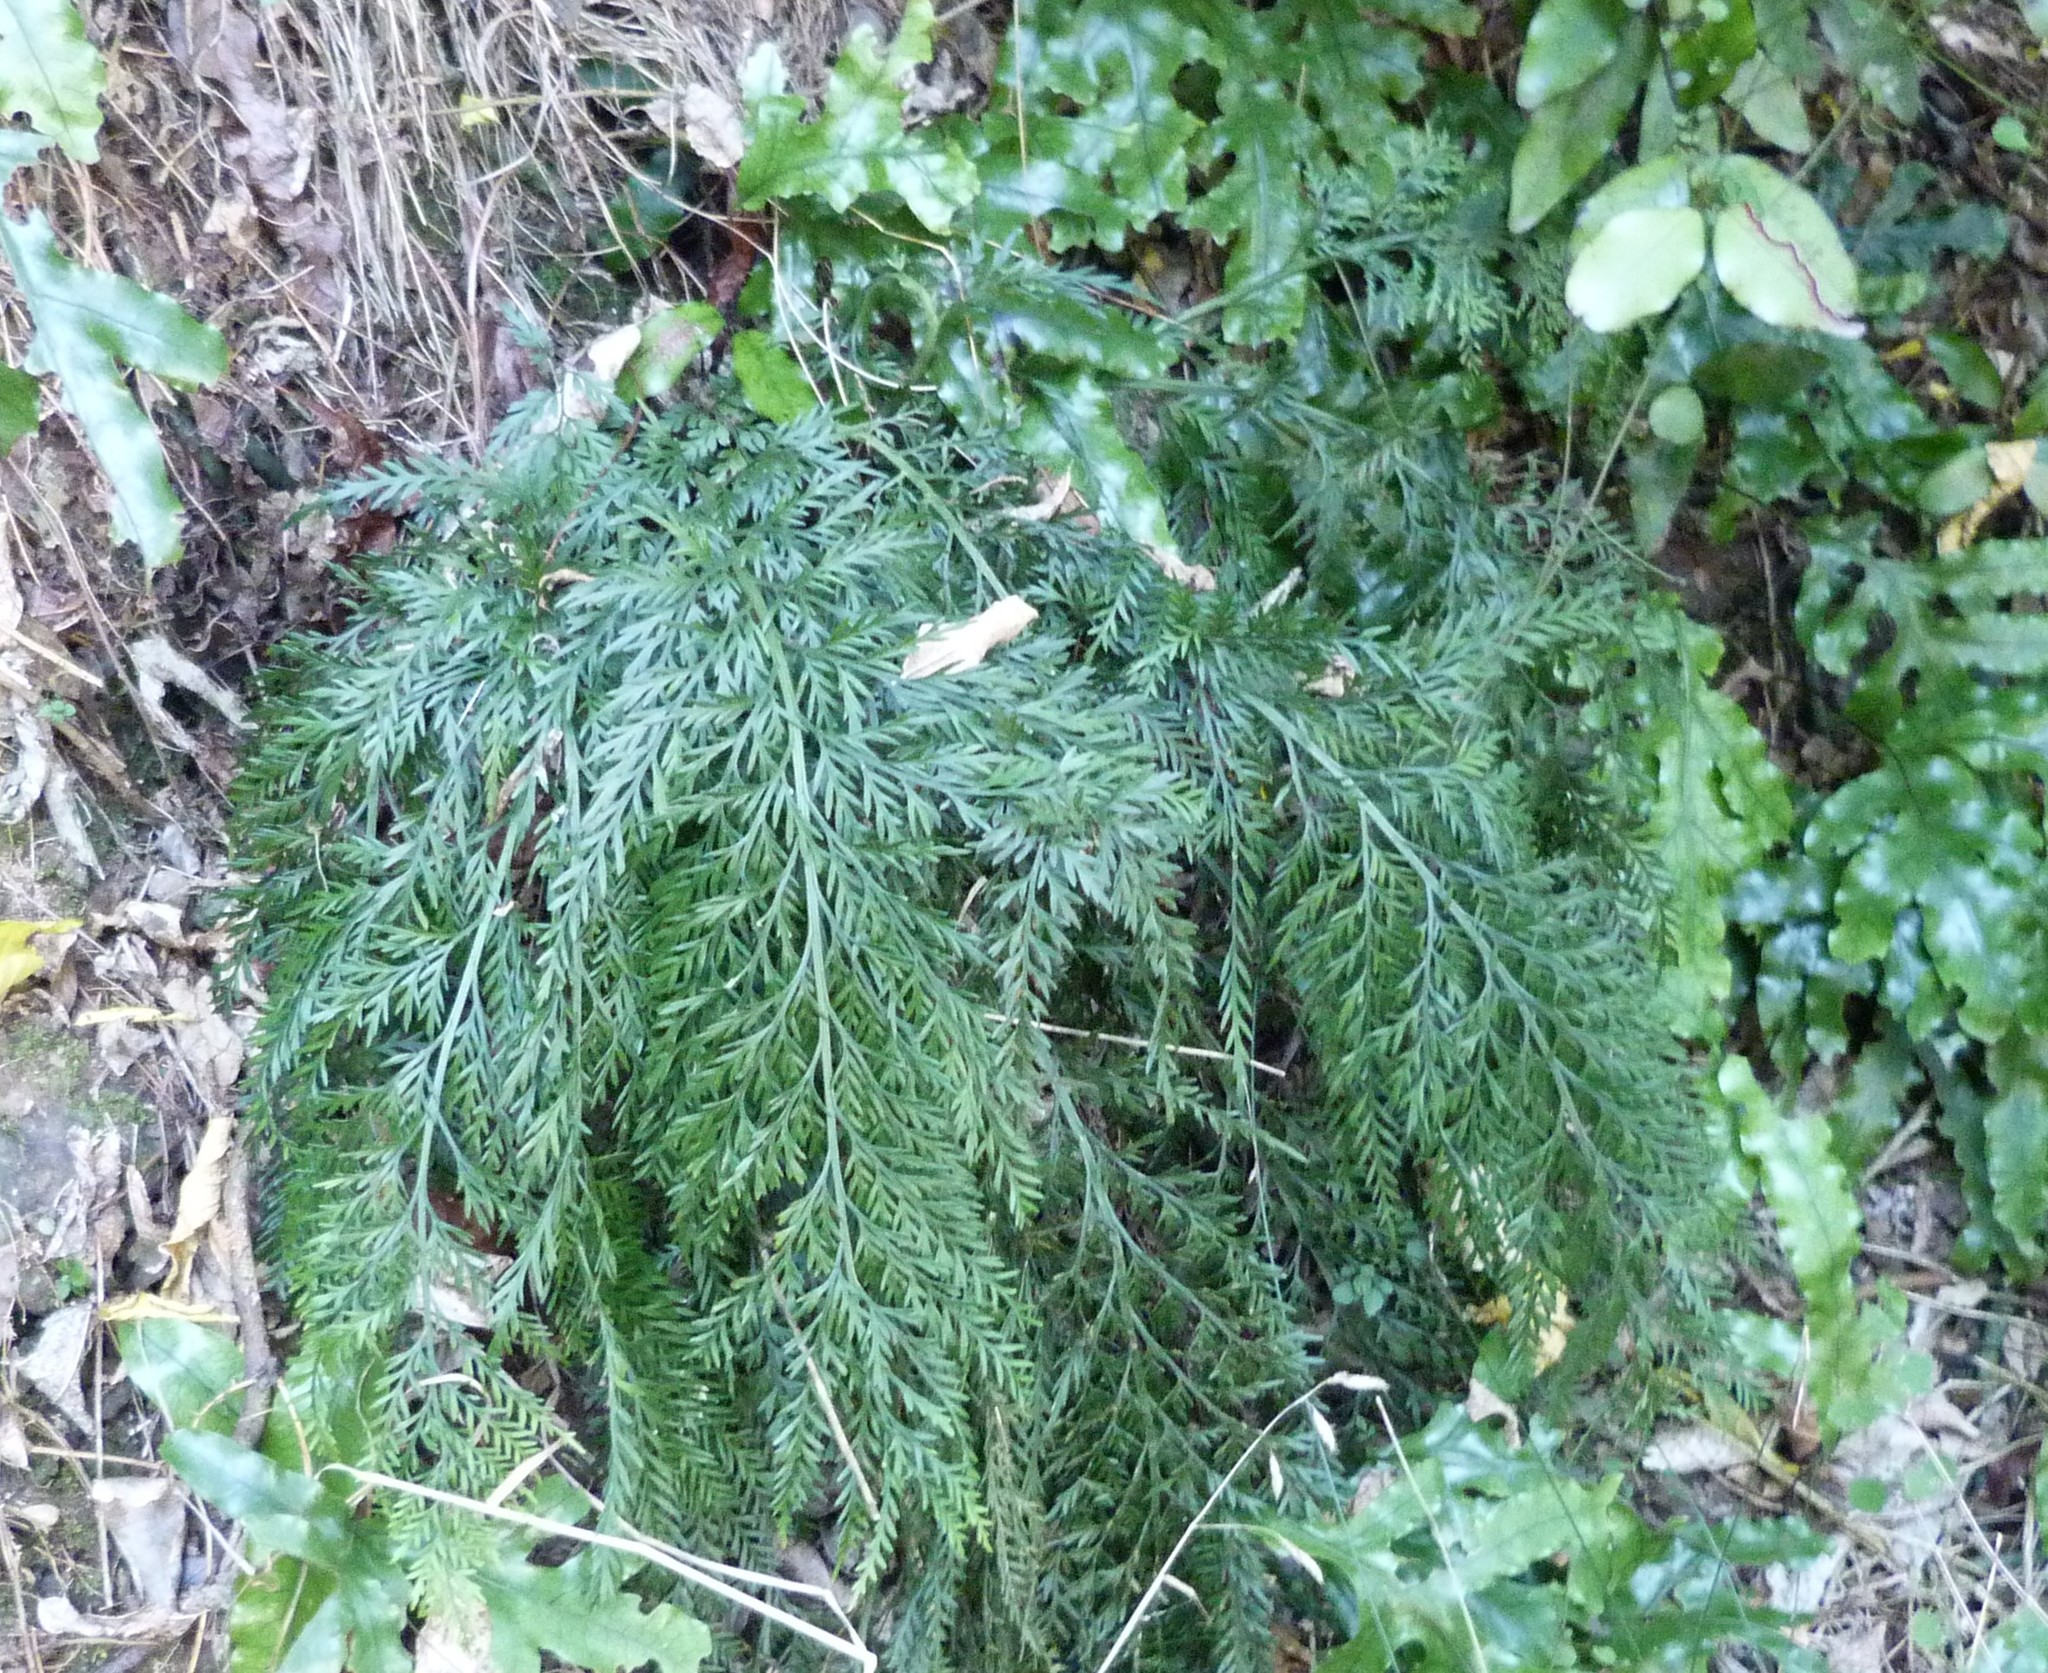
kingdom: Plantae
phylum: Tracheophyta
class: Polypodiopsida
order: Polypodiales
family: Aspleniaceae
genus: Asplenium
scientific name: Asplenium appendiculatum
